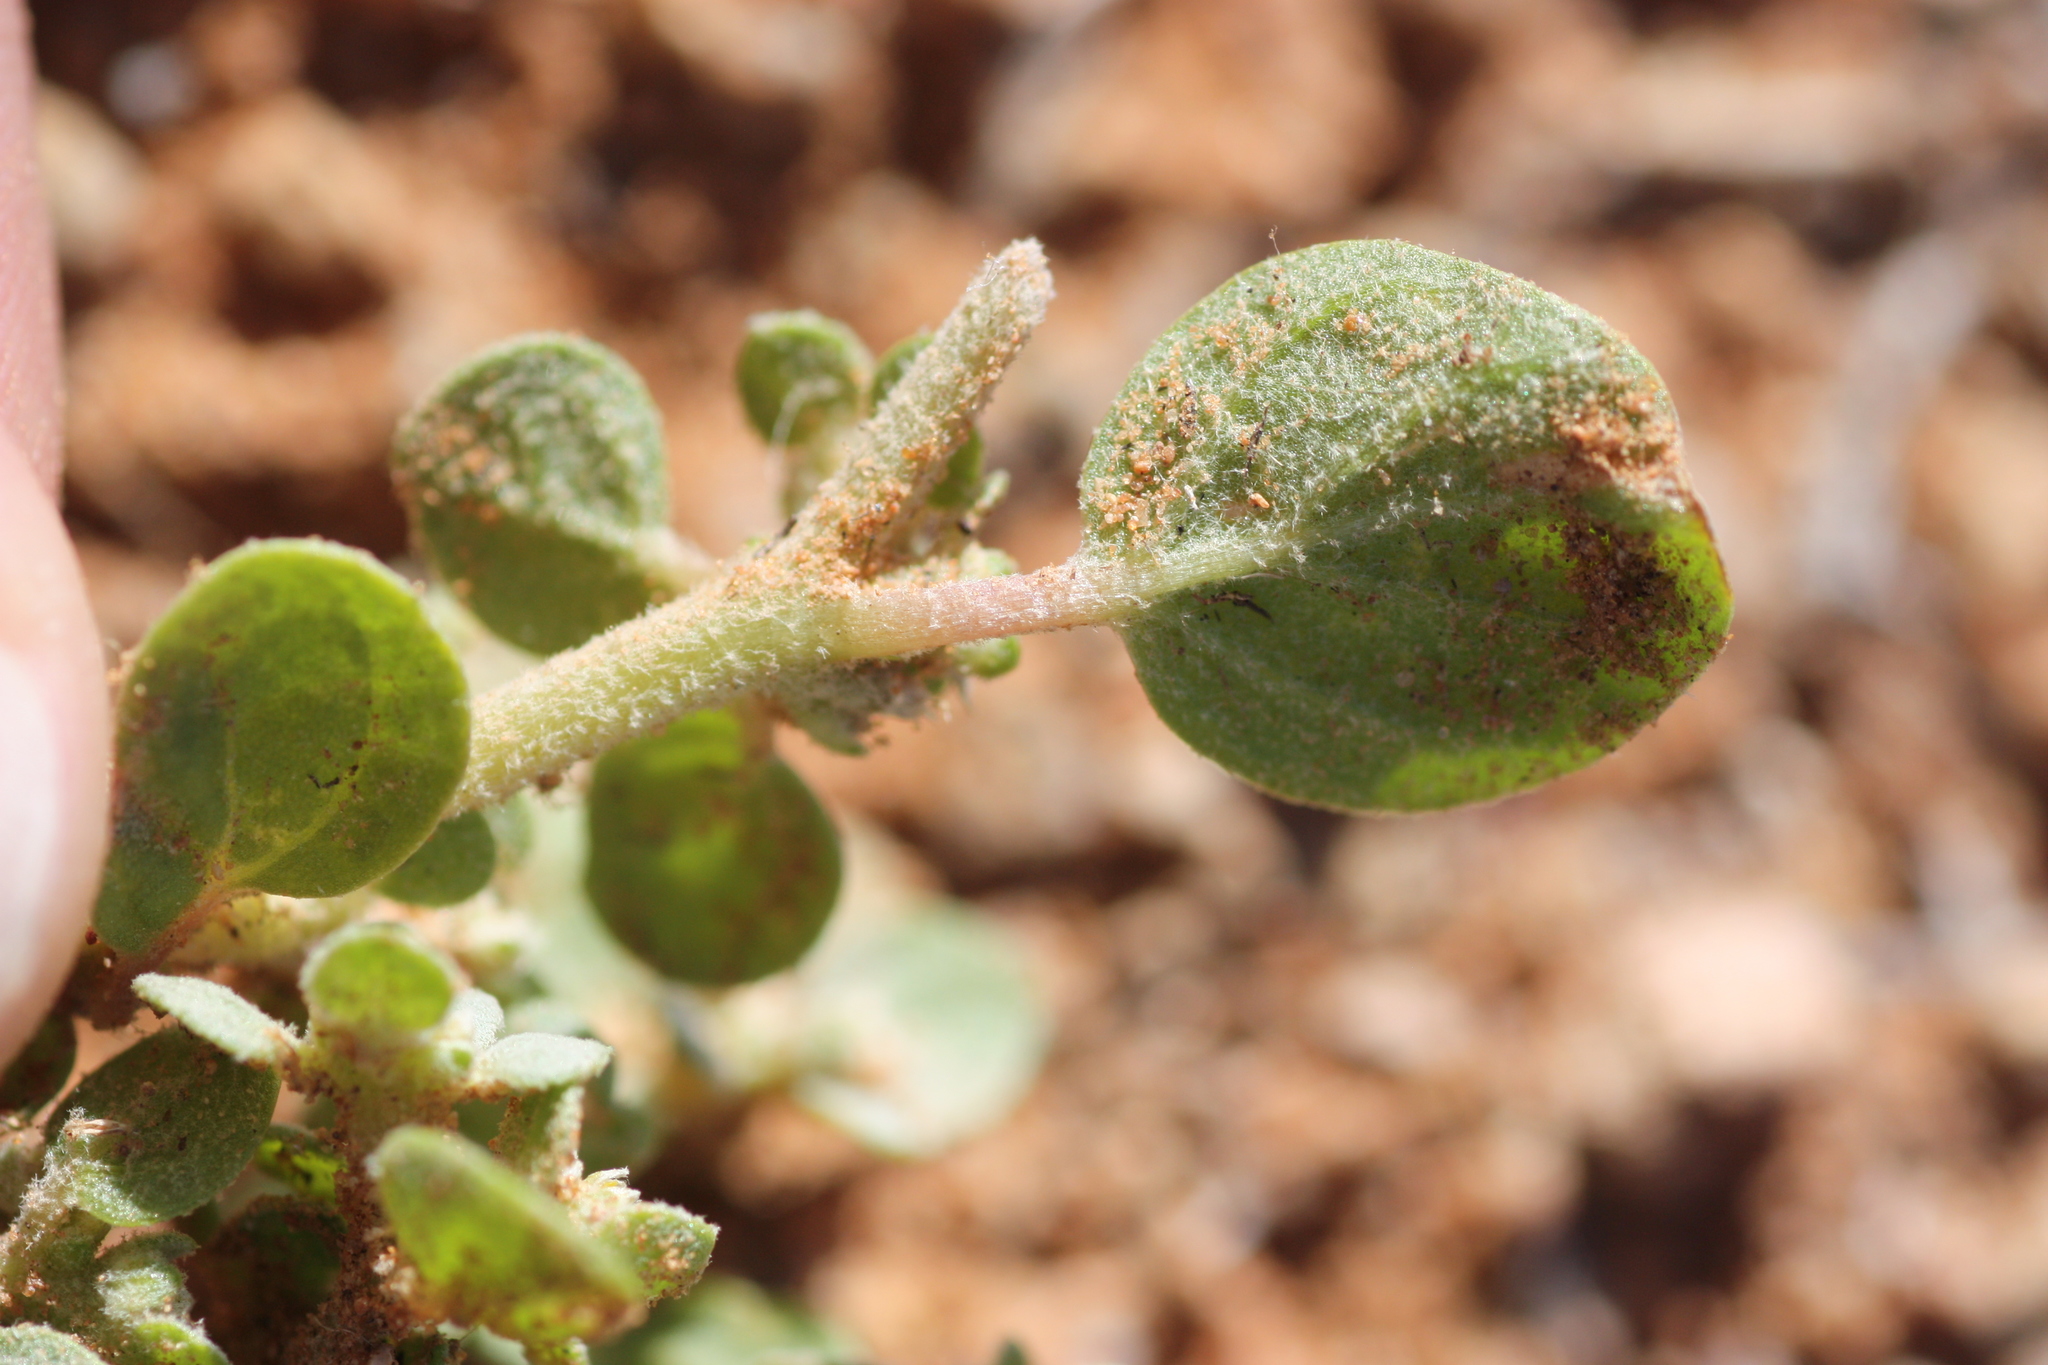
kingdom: Plantae
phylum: Tracheophyta
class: Magnoliopsida
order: Caryophyllales
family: Amaranthaceae
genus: Tidestromia
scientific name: Tidestromia lanuginosa
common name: Woolly tidestromia
